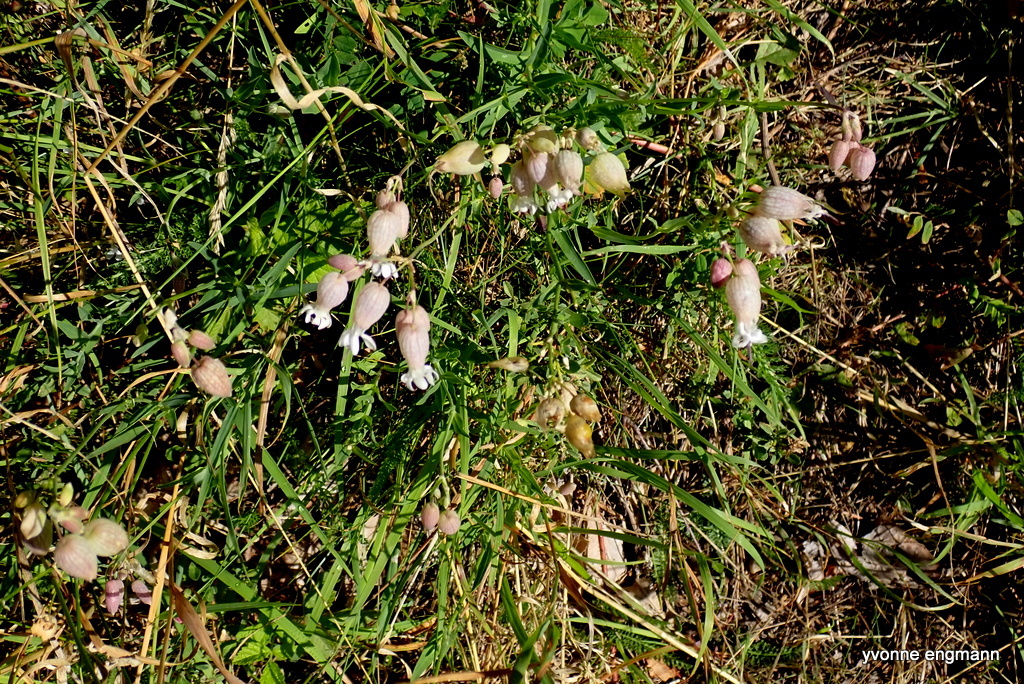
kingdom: Plantae
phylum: Tracheophyta
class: Magnoliopsida
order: Caryophyllales
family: Caryophyllaceae
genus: Silene
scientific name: Silene vulgaris
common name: Bladder campion
